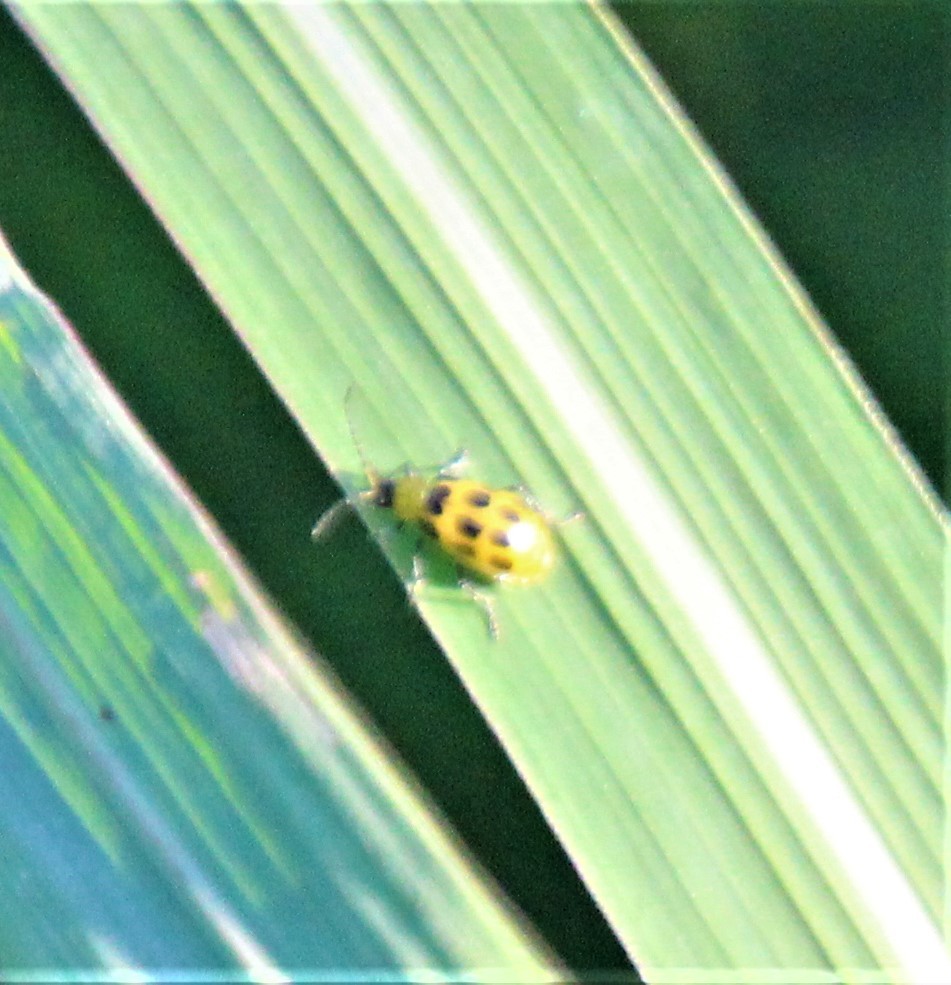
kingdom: Animalia
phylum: Arthropoda
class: Insecta
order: Coleoptera
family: Chrysomelidae
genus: Diabrotica
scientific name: Diabrotica undecimpunctata
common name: Spotted cucumber beetle
